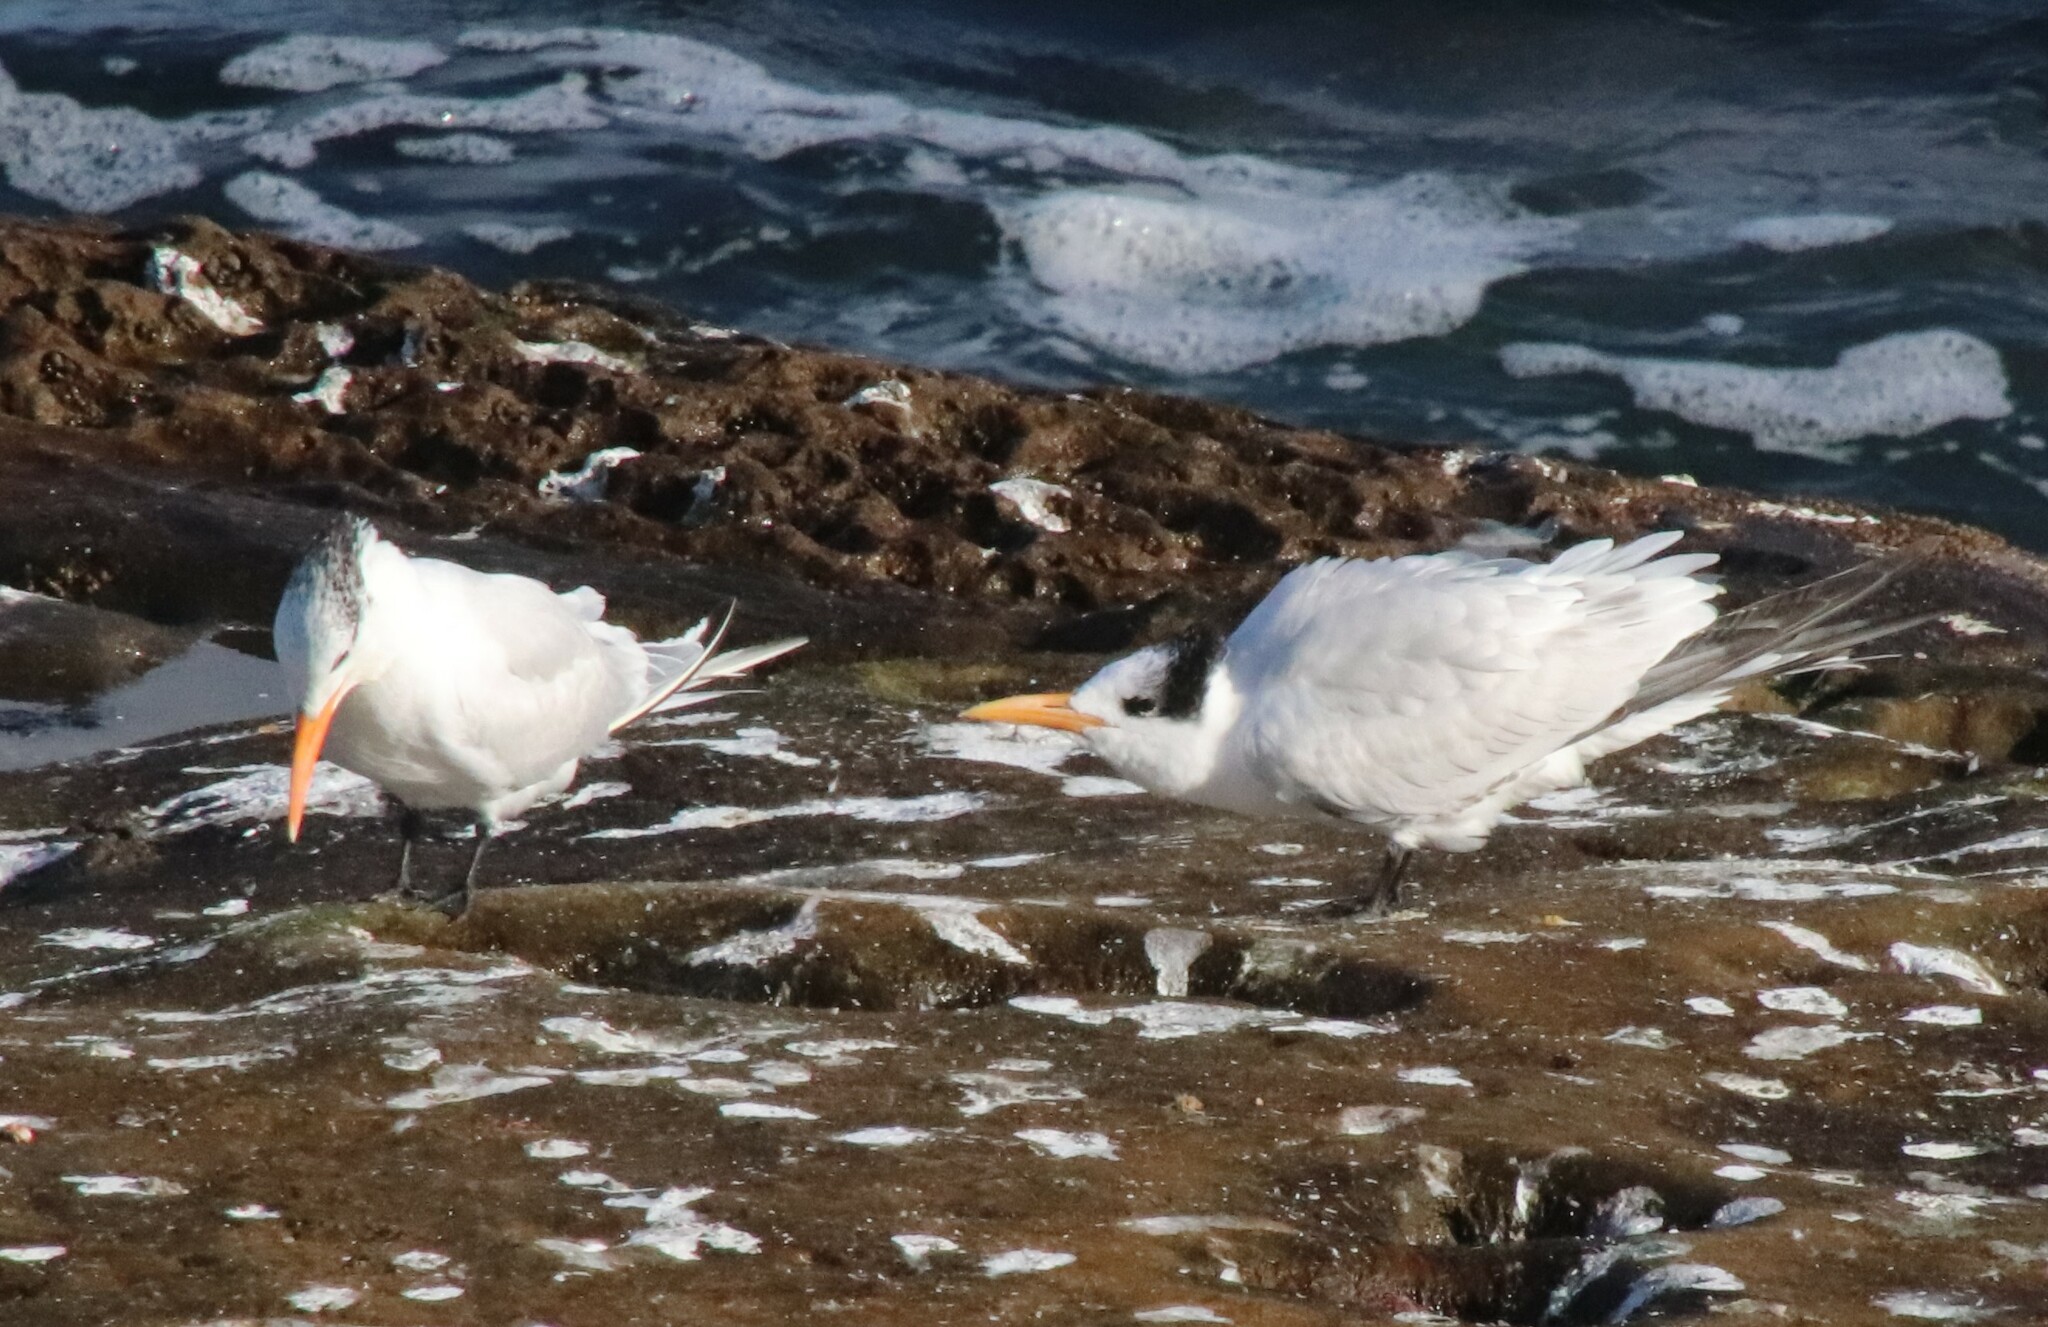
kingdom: Animalia
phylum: Chordata
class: Aves
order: Charadriiformes
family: Laridae
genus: Thalasseus
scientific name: Thalasseus maximus
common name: Royal tern
